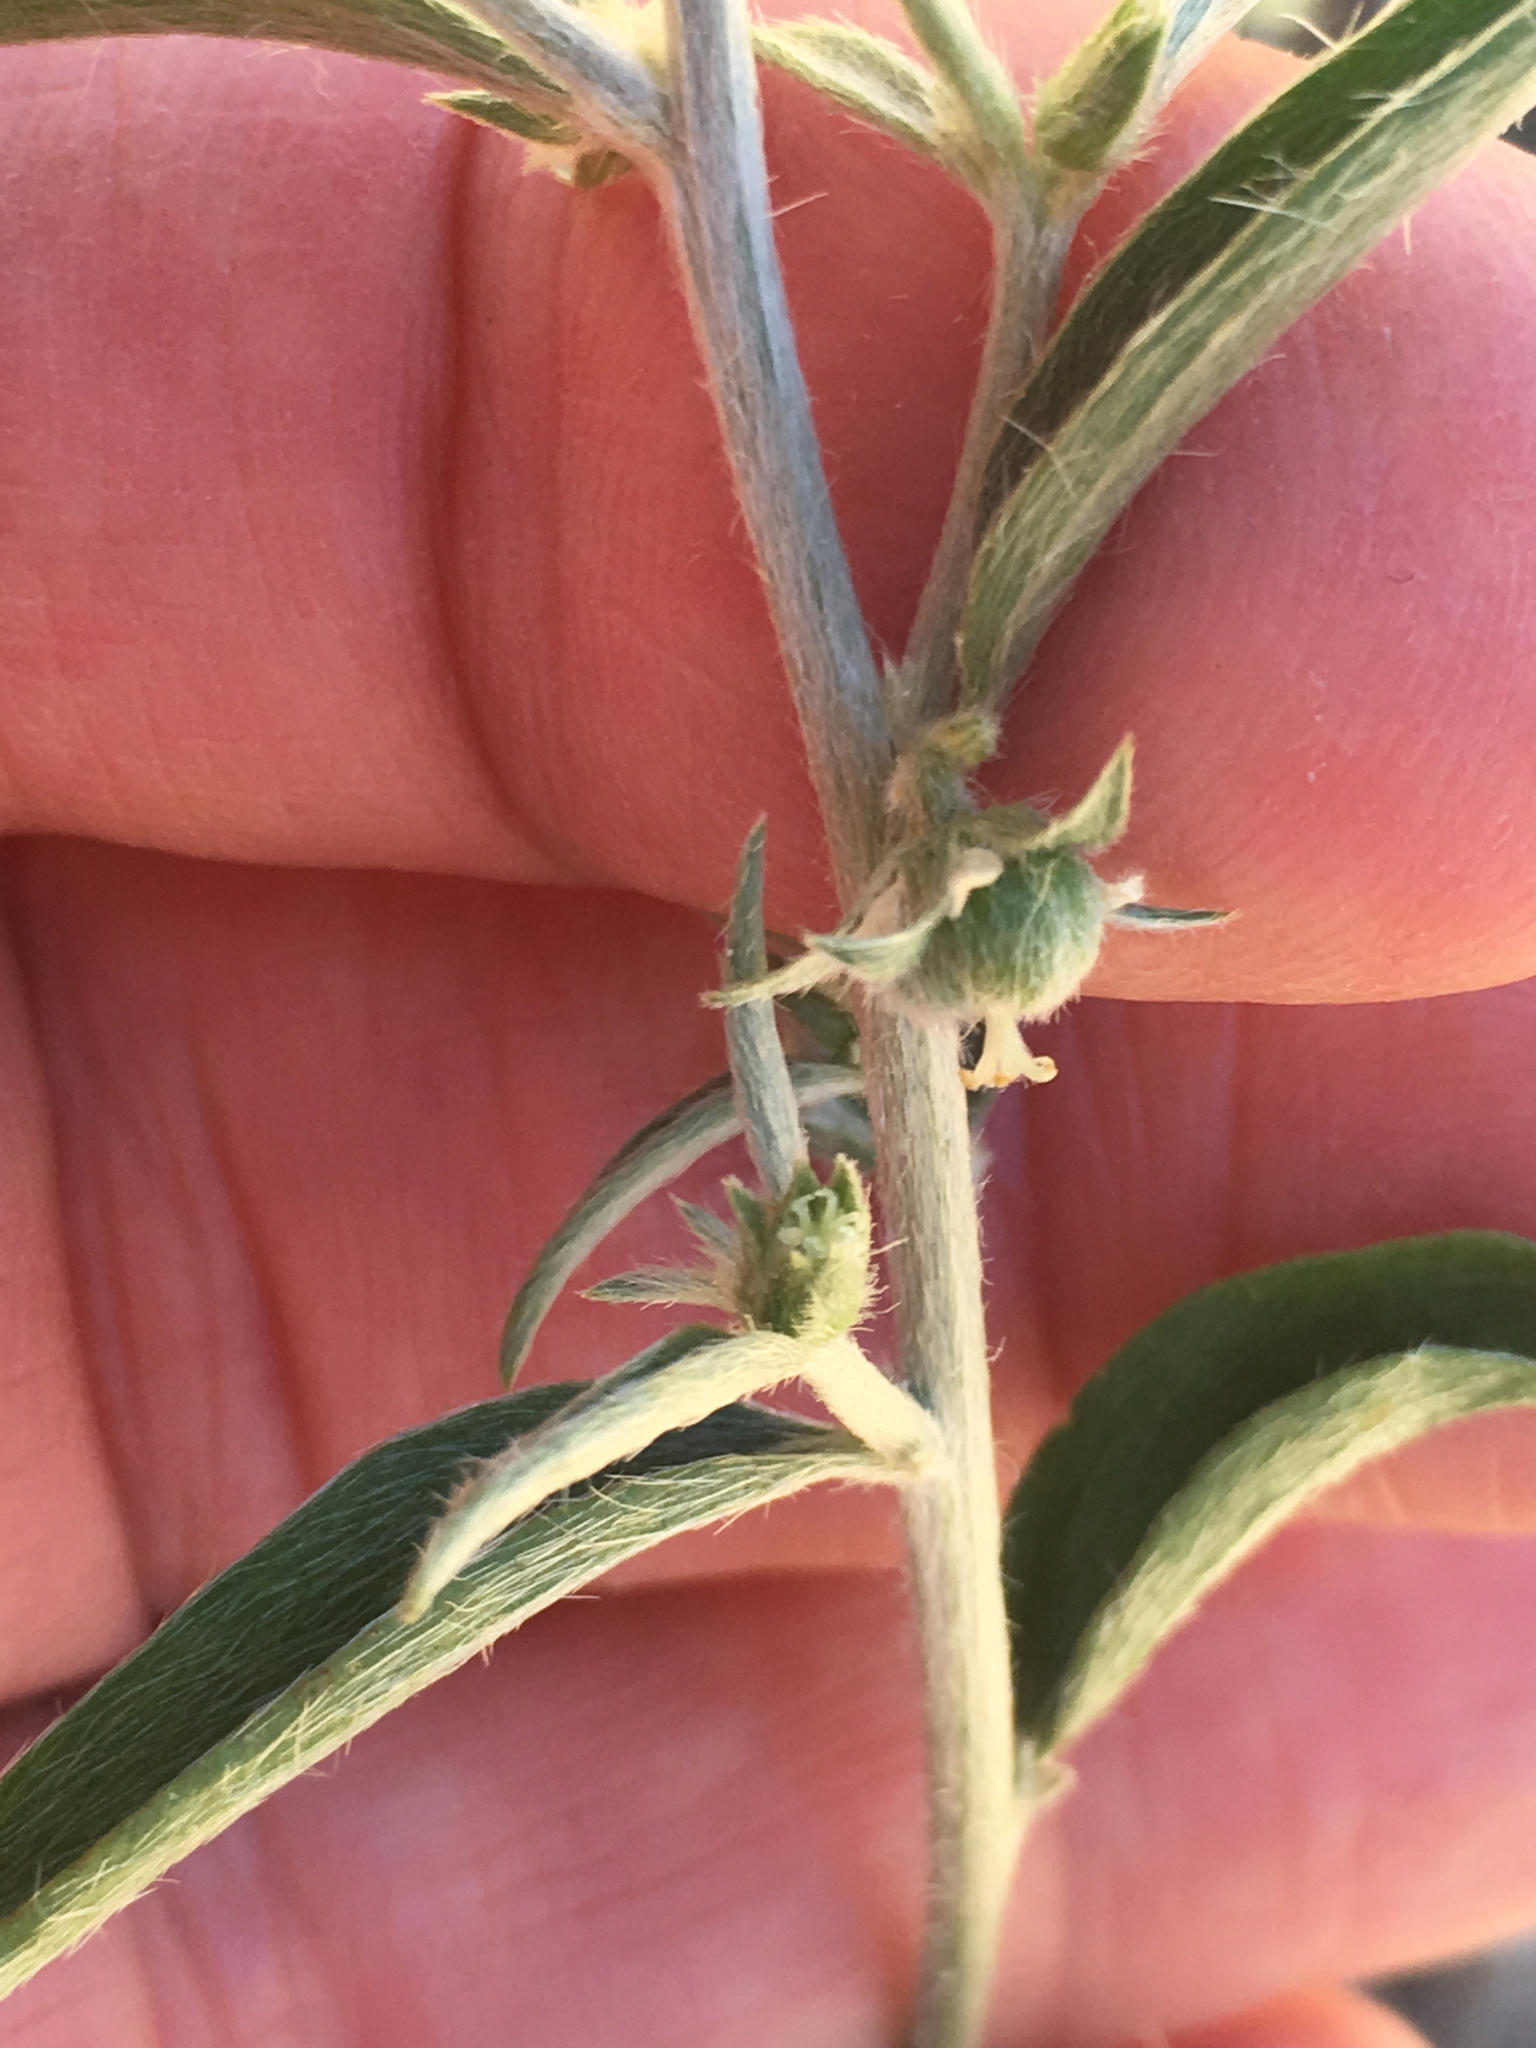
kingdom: Plantae
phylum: Tracheophyta
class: Magnoliopsida
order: Malpighiales
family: Euphorbiaceae
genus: Ditaxis
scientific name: Ditaxis lanceolata
